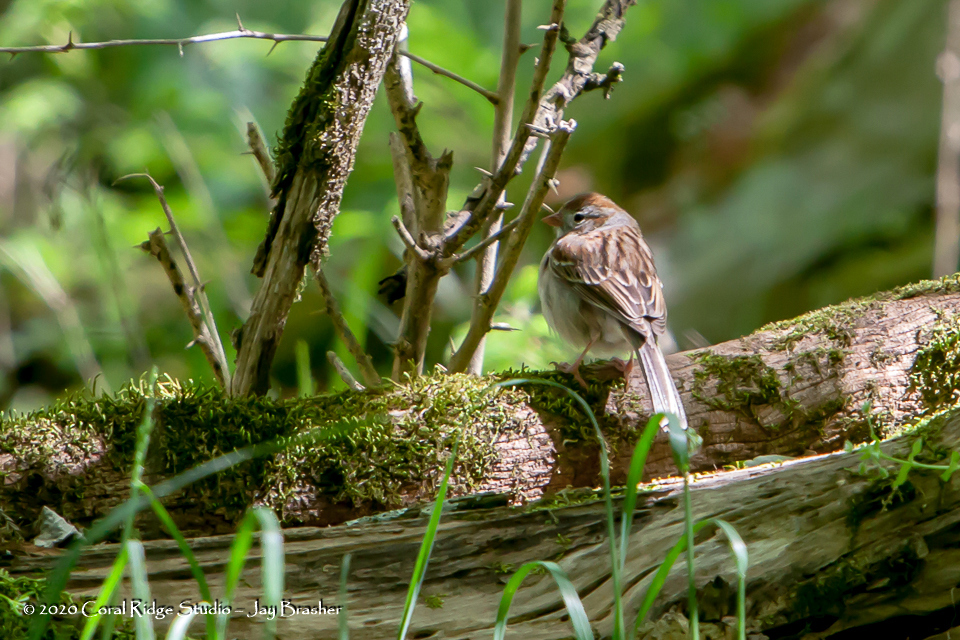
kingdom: Animalia
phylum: Chordata
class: Aves
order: Passeriformes
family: Passerellidae
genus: Spizella
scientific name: Spizella pusilla
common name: Field sparrow
